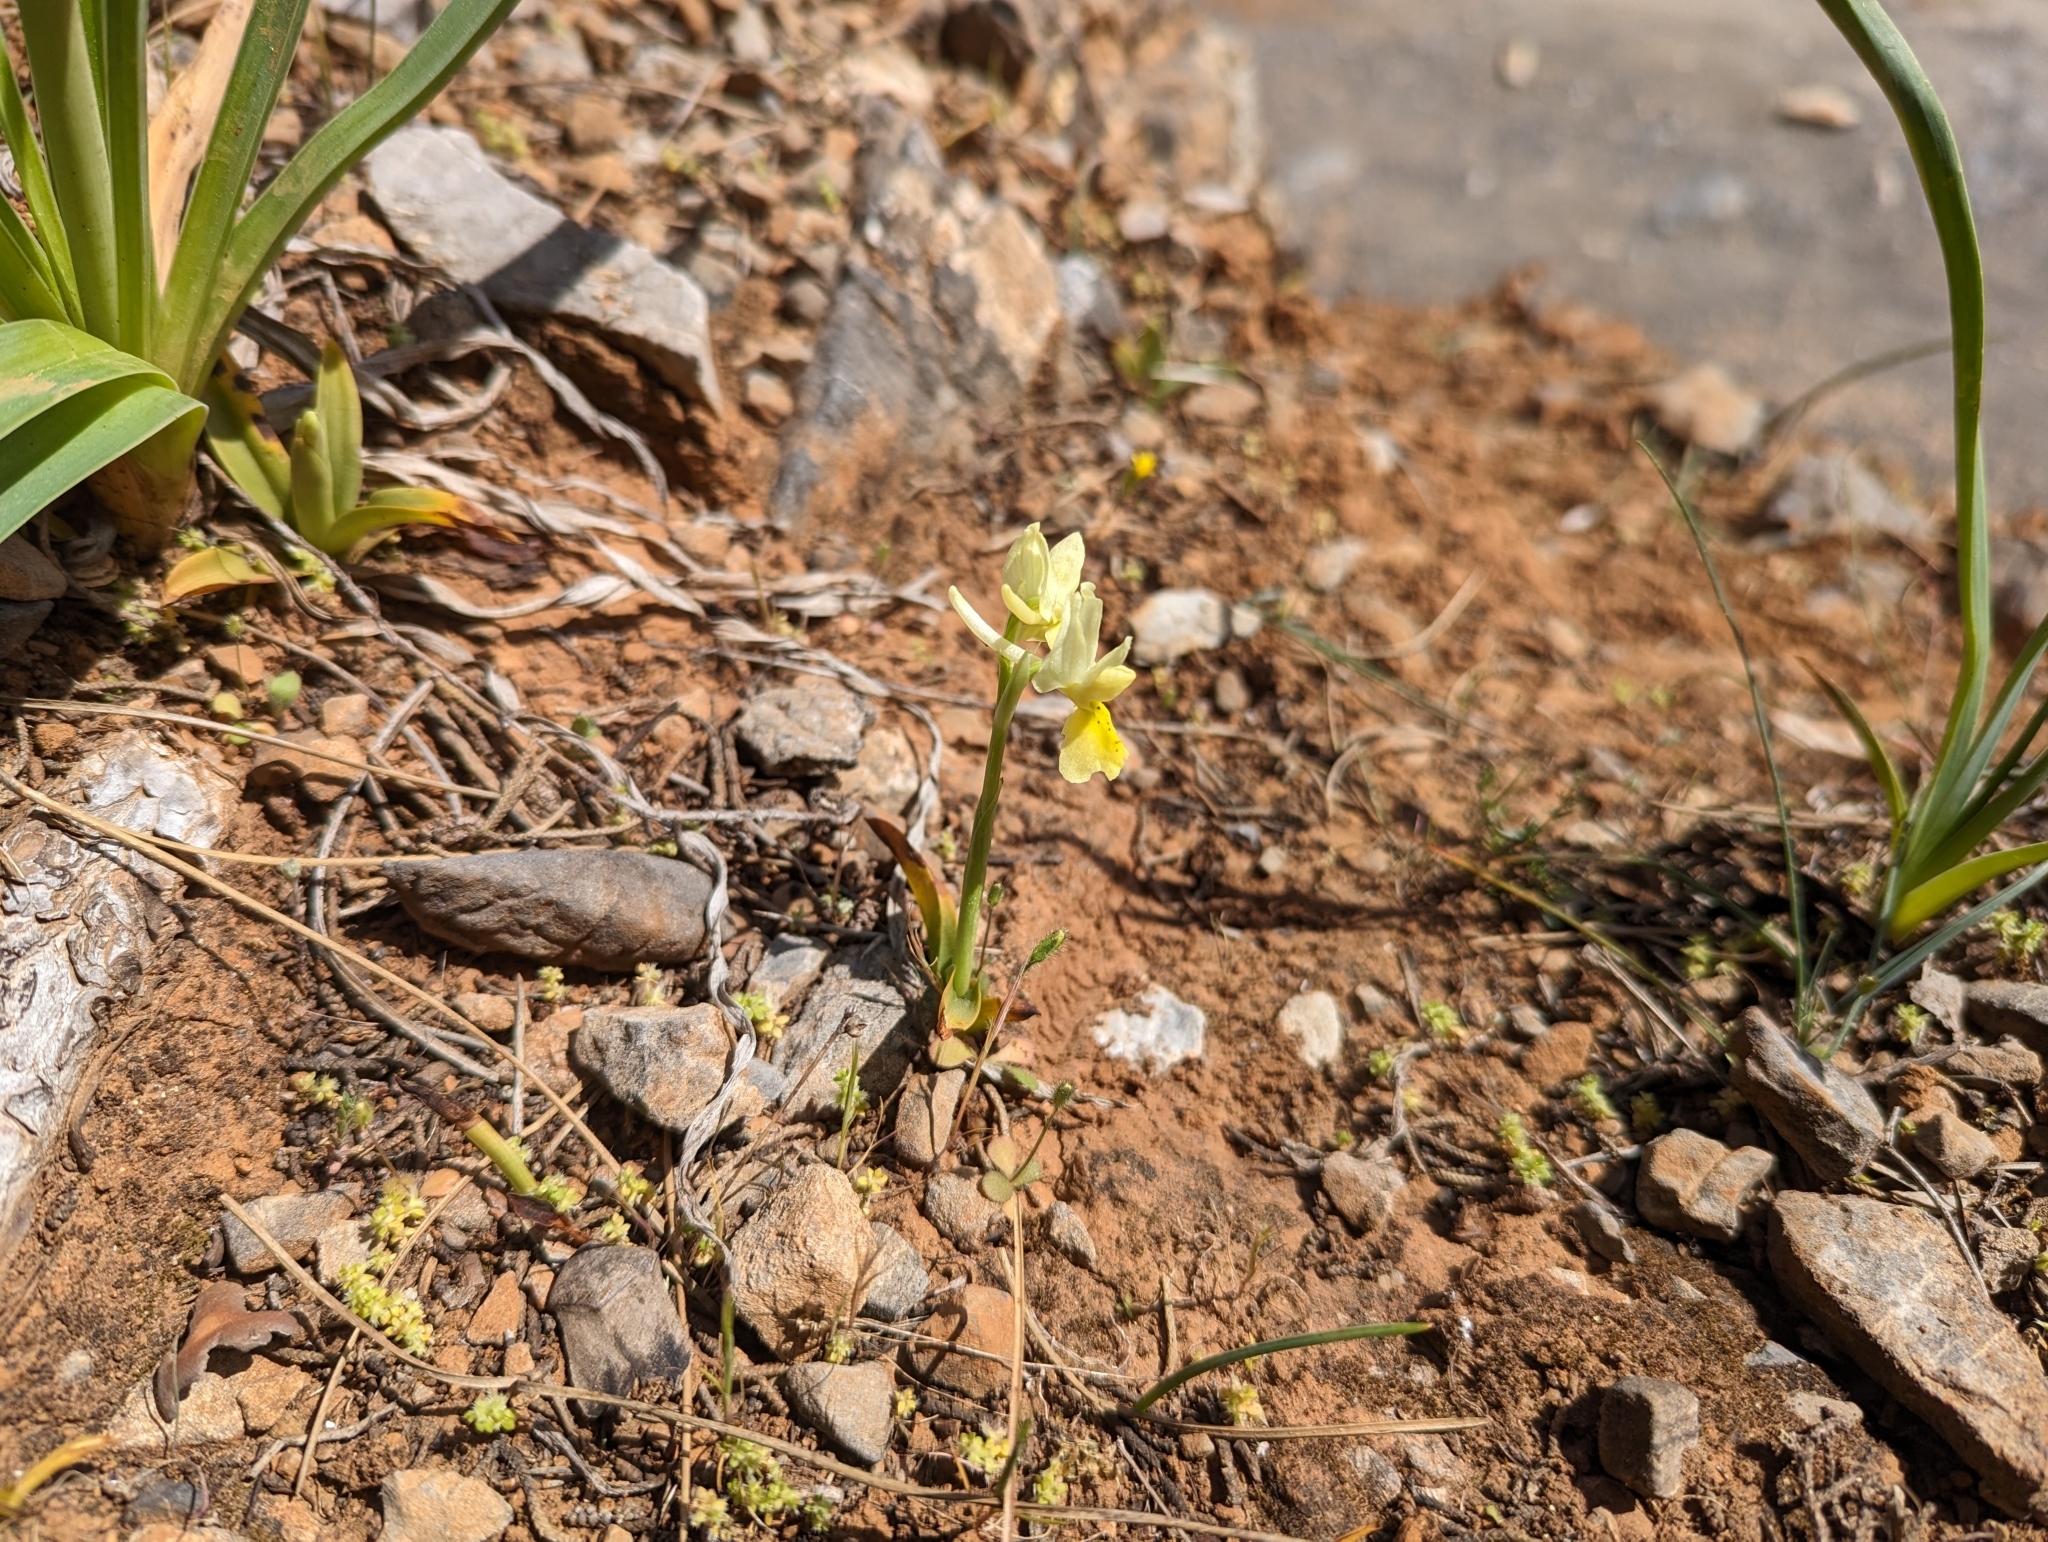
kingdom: Plantae
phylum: Tracheophyta
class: Liliopsida
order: Asparagales
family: Orchidaceae
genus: Orchis
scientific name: Orchis pauciflora
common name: Few-flowered orchid
